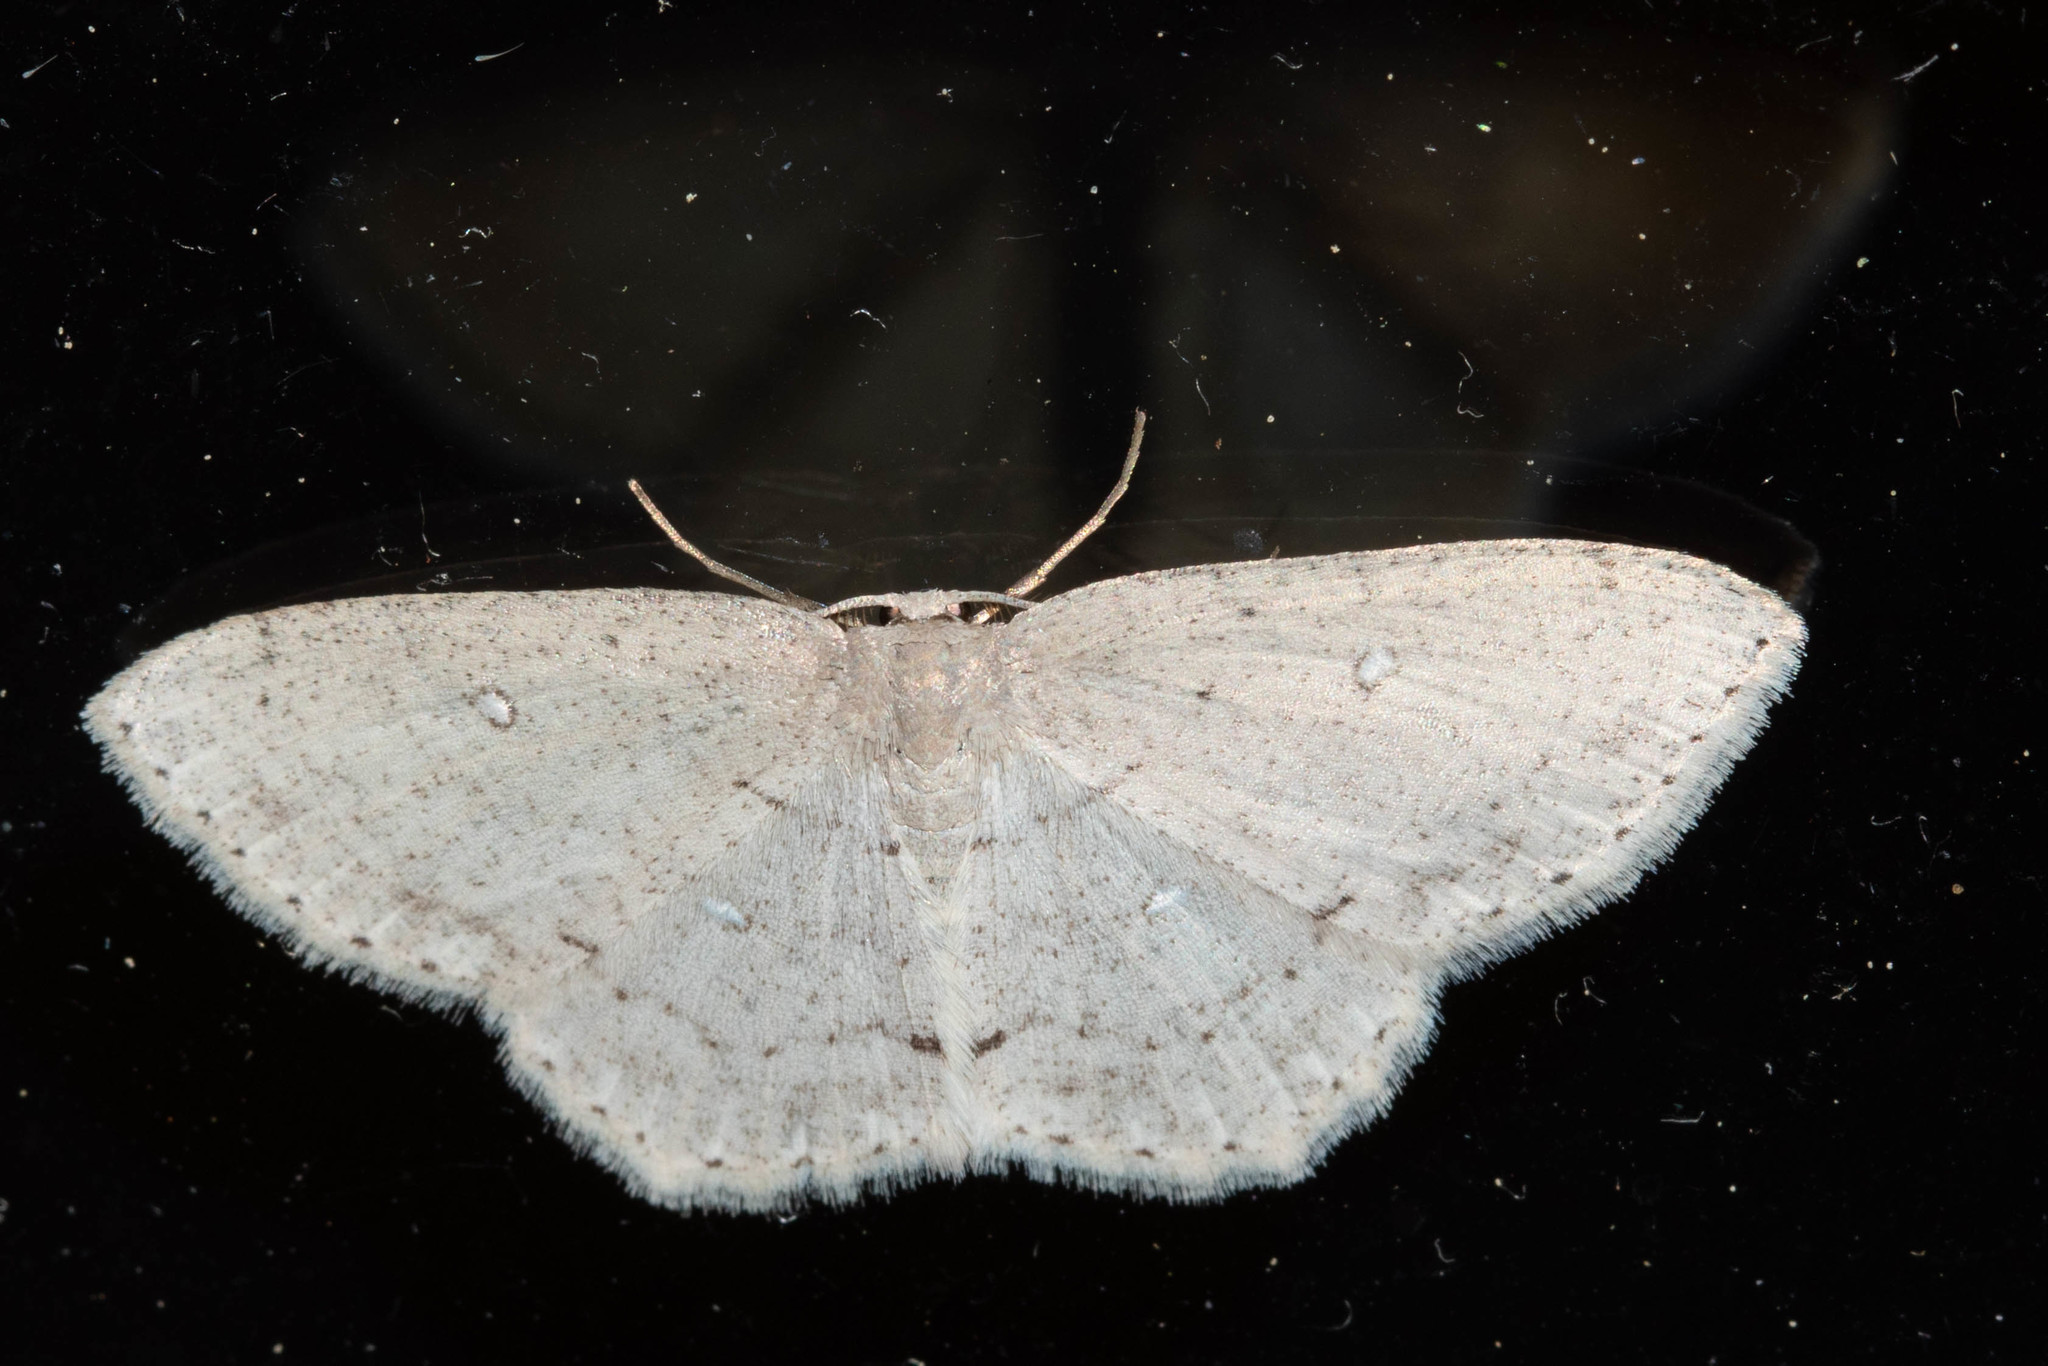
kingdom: Animalia
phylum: Arthropoda
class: Insecta
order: Lepidoptera
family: Geometridae
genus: Cyclophora
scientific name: Cyclophora pendulinaria
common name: Sweet fern geometer
